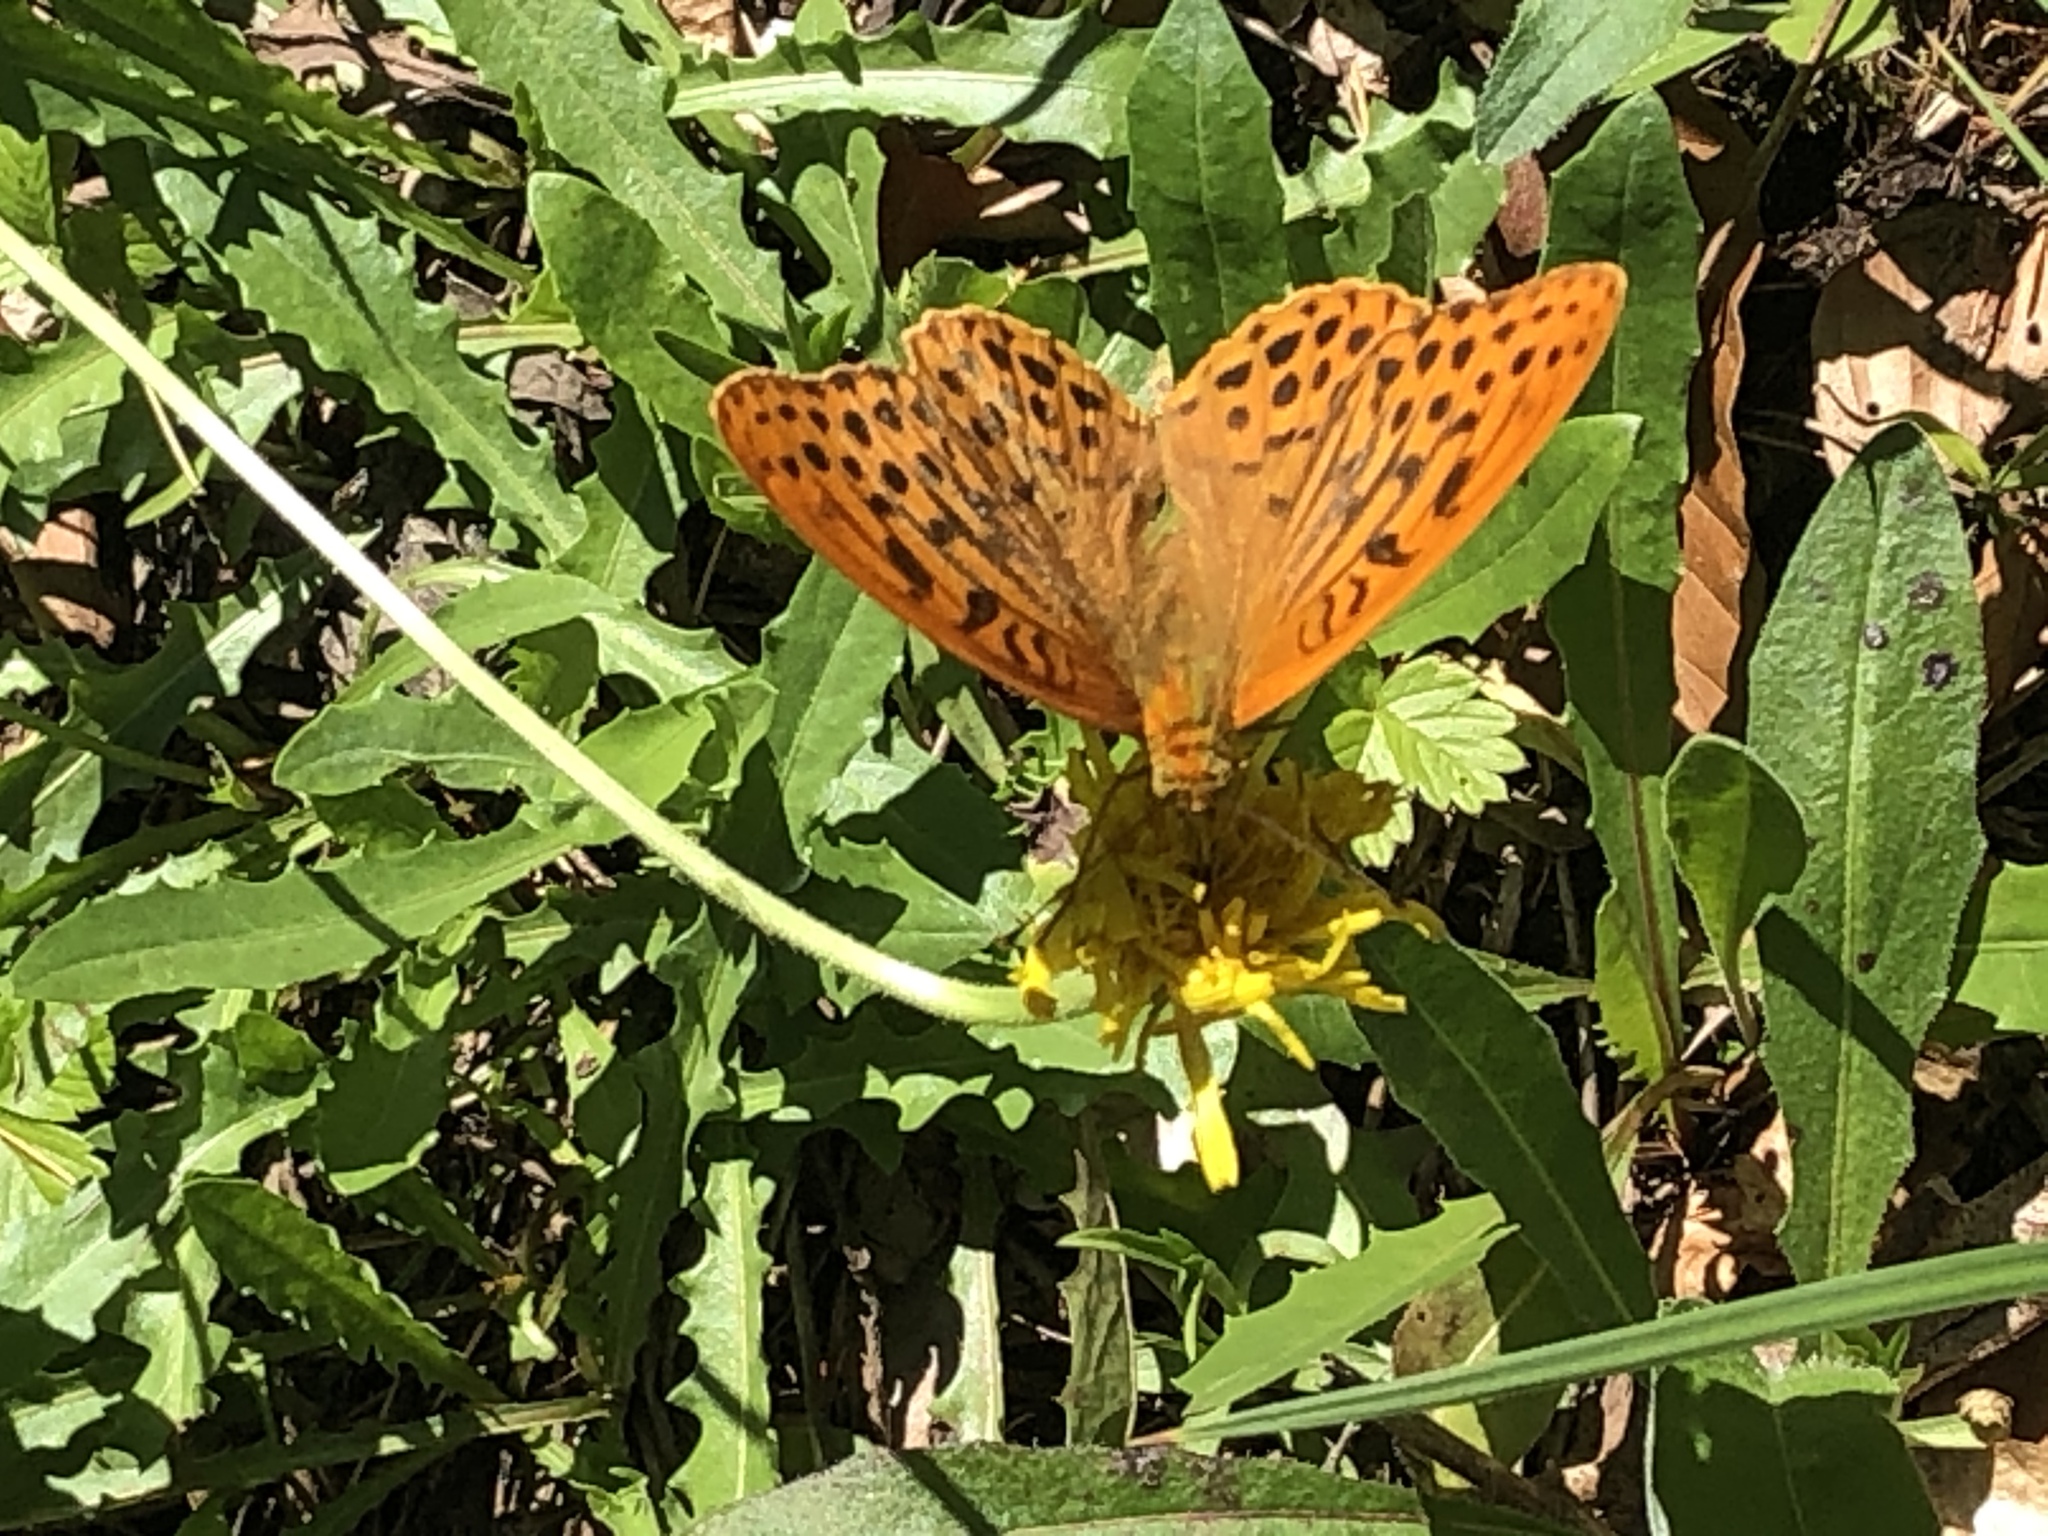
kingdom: Animalia
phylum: Arthropoda
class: Insecta
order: Lepidoptera
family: Nymphalidae
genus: Argynnis
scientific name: Argynnis paphia
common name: Silver-washed fritillary
